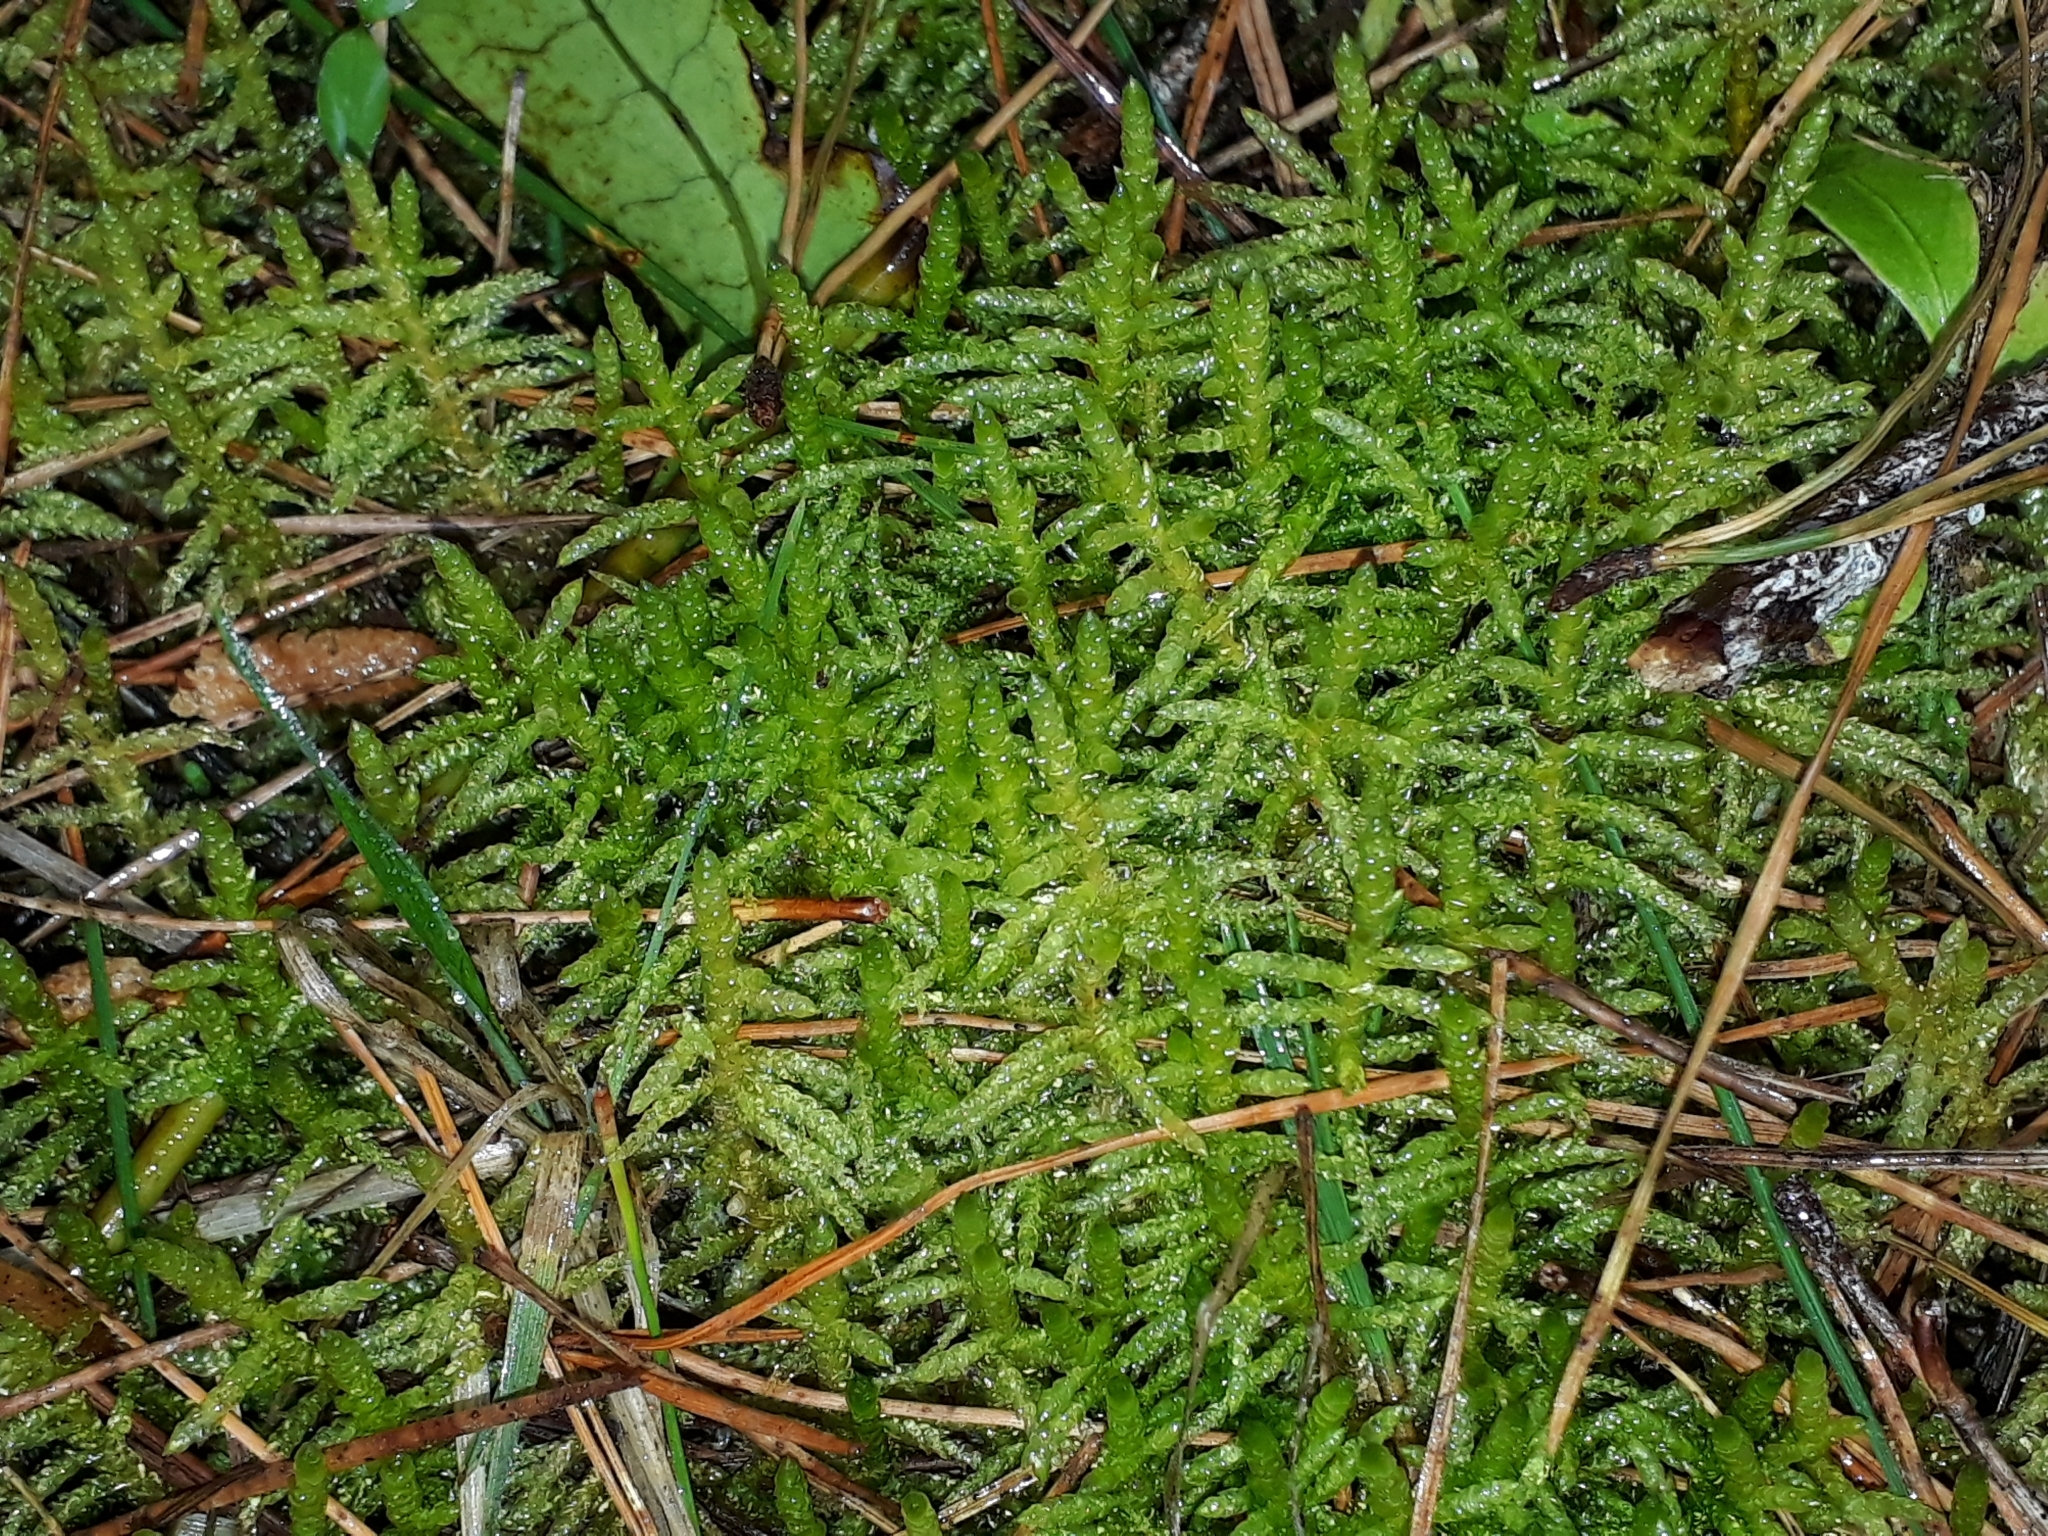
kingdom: Plantae
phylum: Bryophyta
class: Bryopsida
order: Hypnales
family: Brachytheciaceae
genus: Pseudoscleropodium
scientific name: Pseudoscleropodium purum
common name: Neat feather-moss
